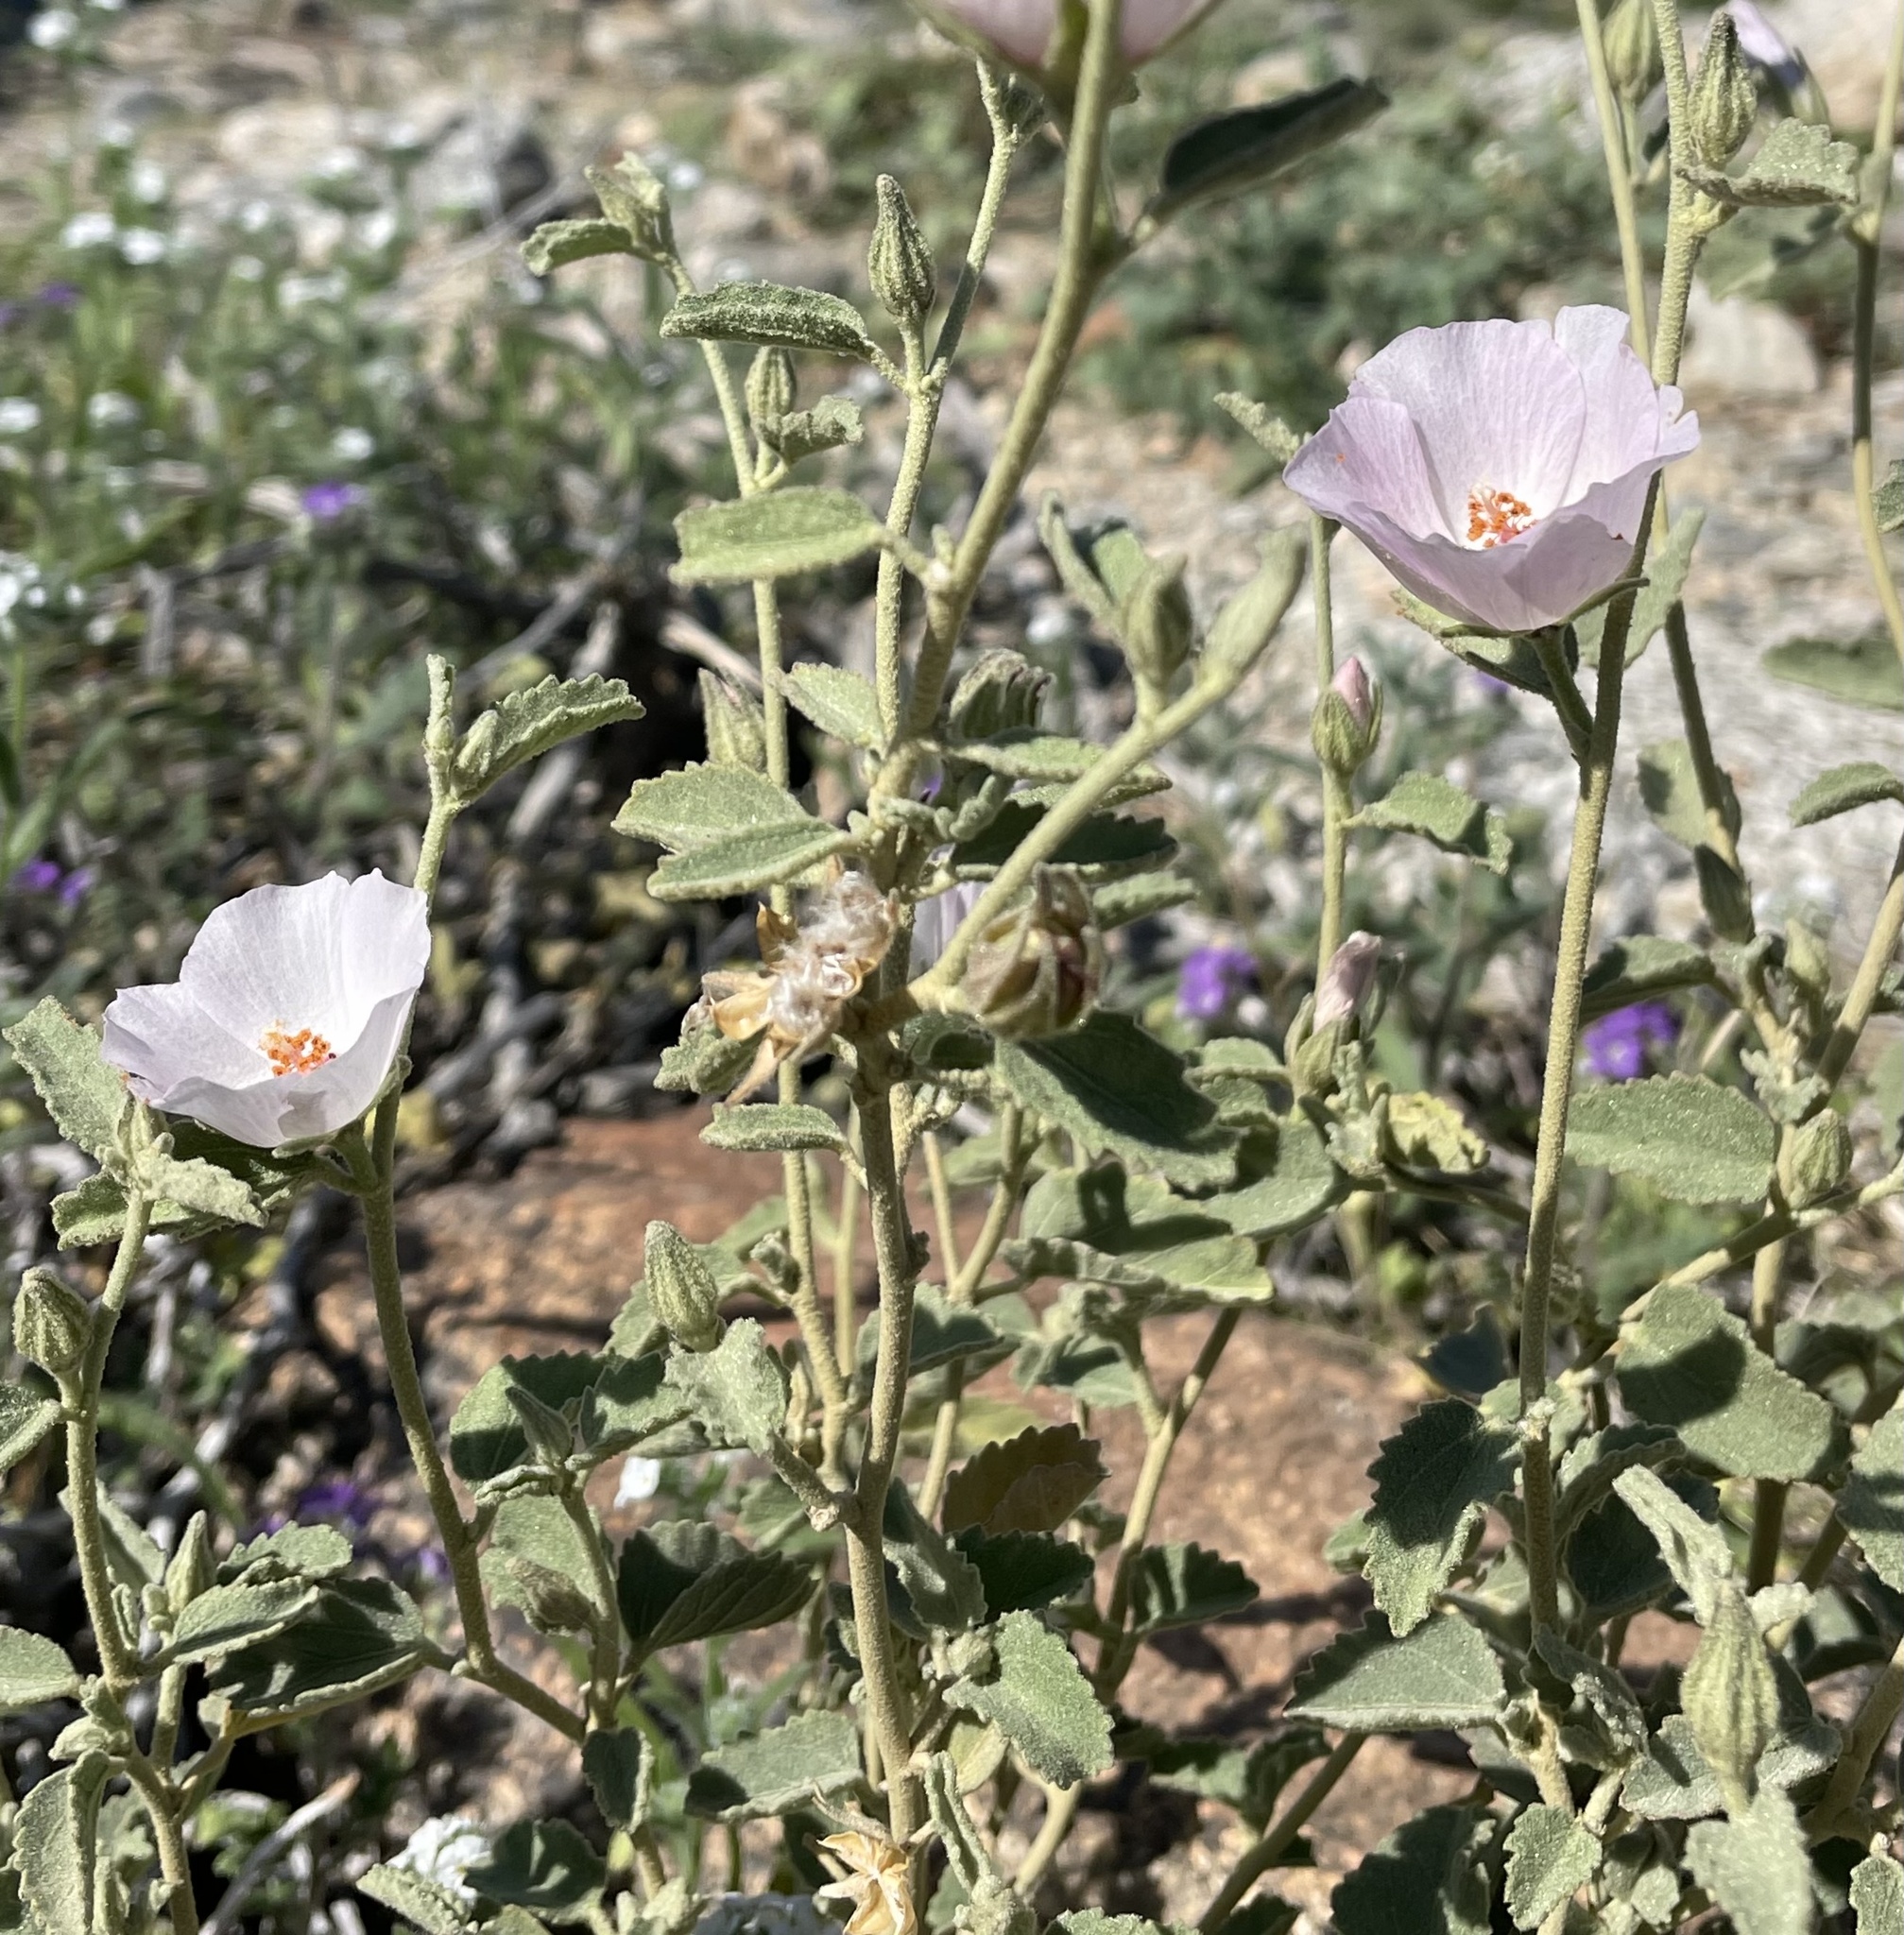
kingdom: Plantae
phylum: Tracheophyta
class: Magnoliopsida
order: Malvales
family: Malvaceae
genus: Hibiscus
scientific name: Hibiscus denudatus
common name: Paleface
